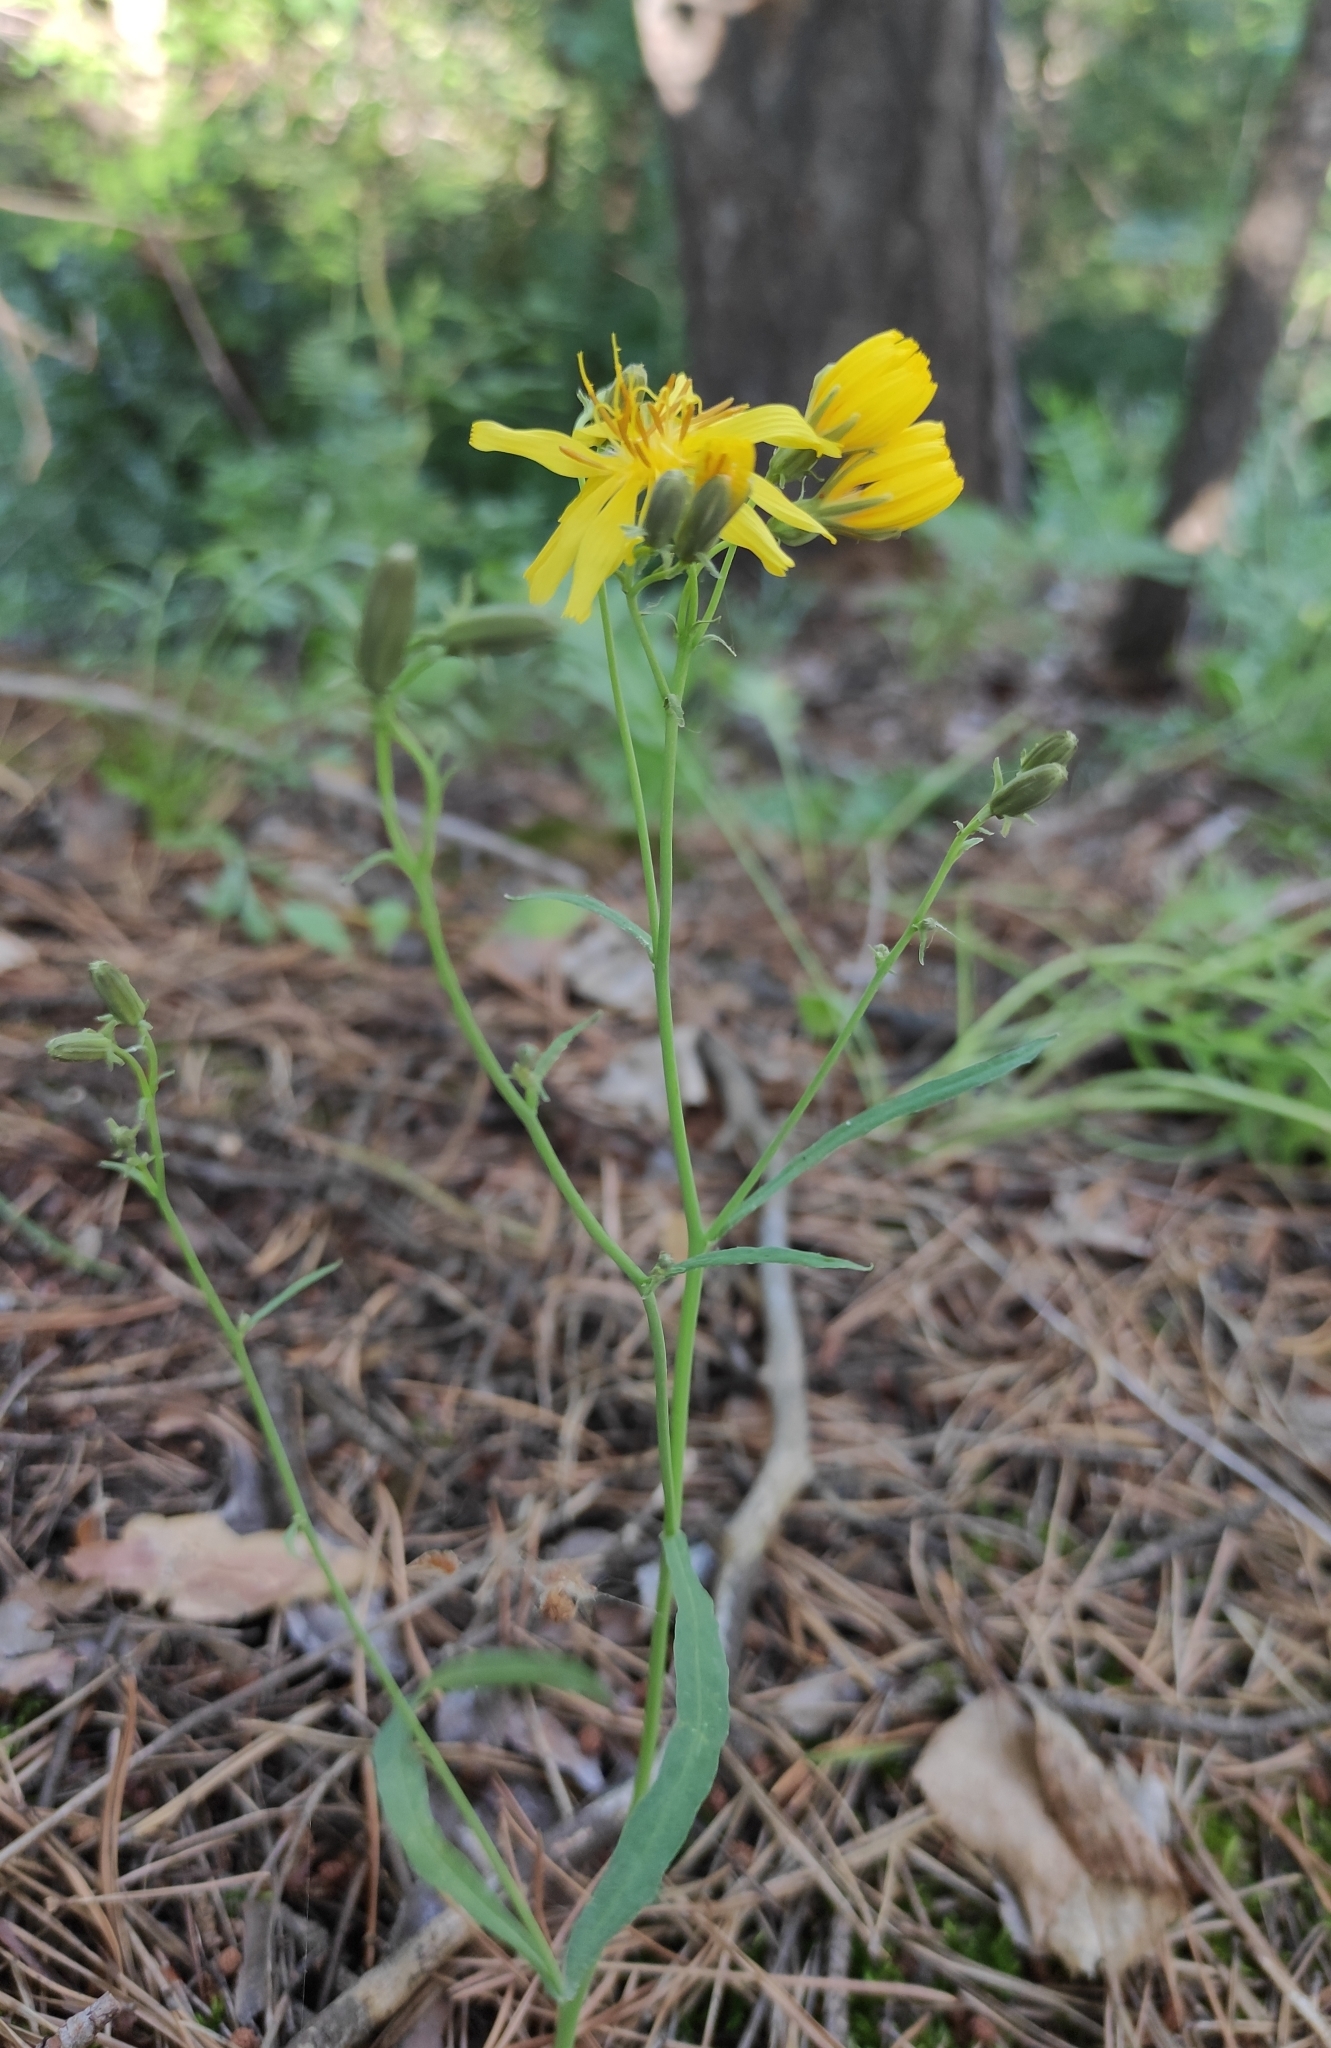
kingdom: Plantae
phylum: Tracheophyta
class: Magnoliopsida
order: Asterales
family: Asteraceae
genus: Crepidiastrum
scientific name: Crepidiastrum tenuifolium
